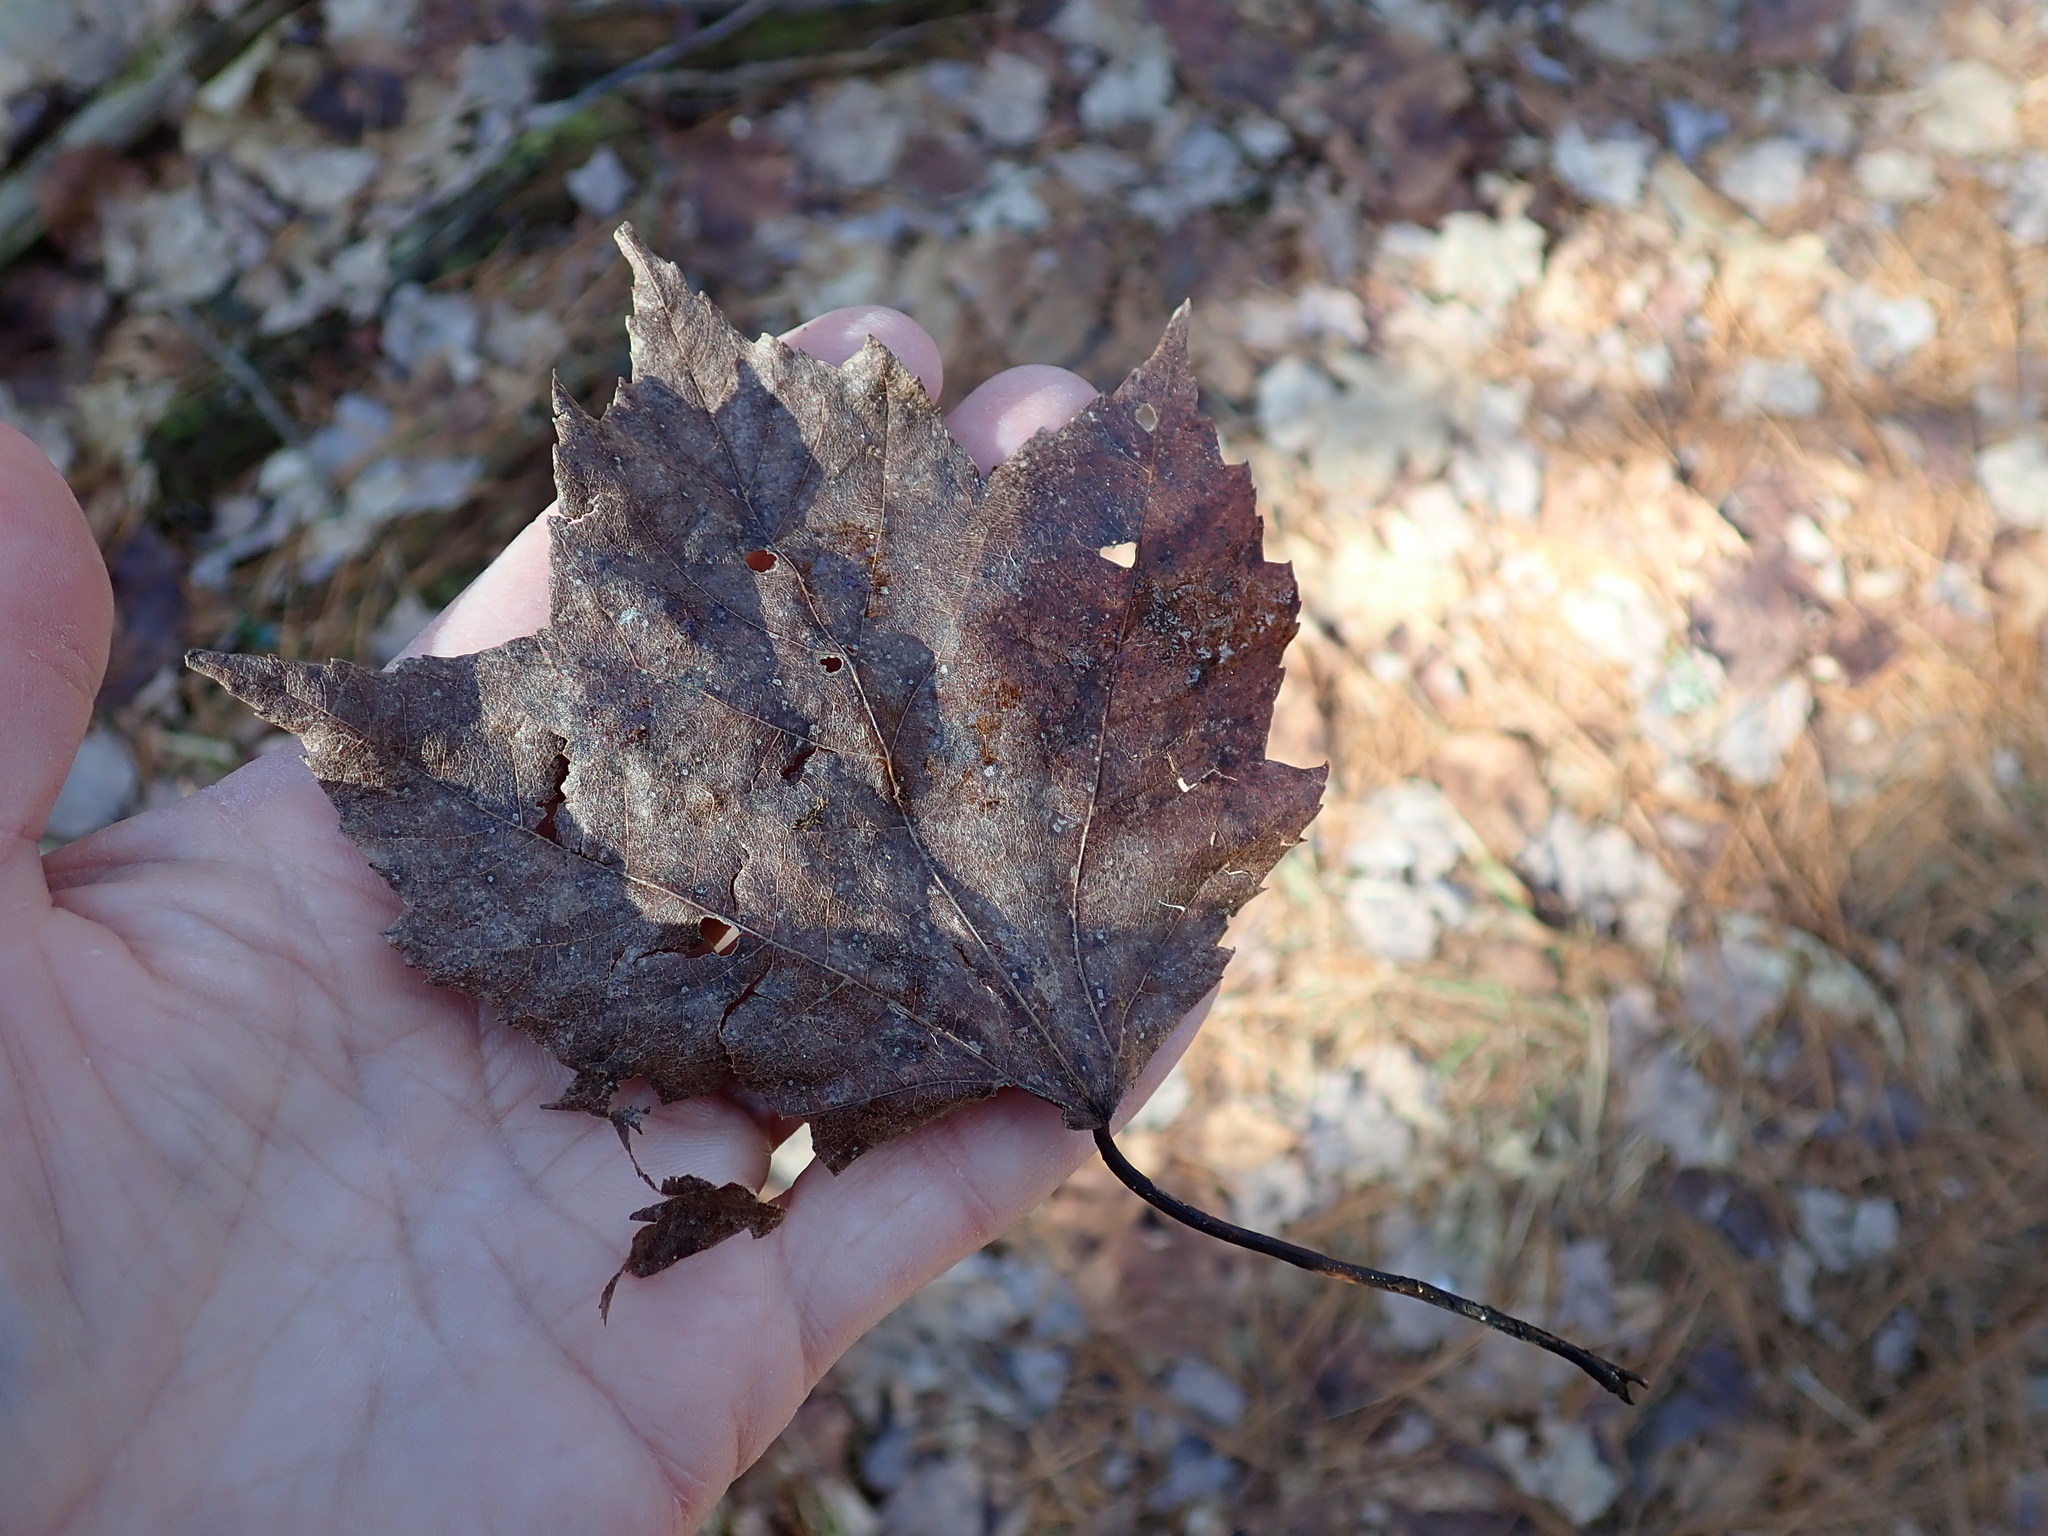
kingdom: Plantae
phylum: Tracheophyta
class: Magnoliopsida
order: Sapindales
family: Sapindaceae
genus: Acer
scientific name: Acer rubrum
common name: Red maple
